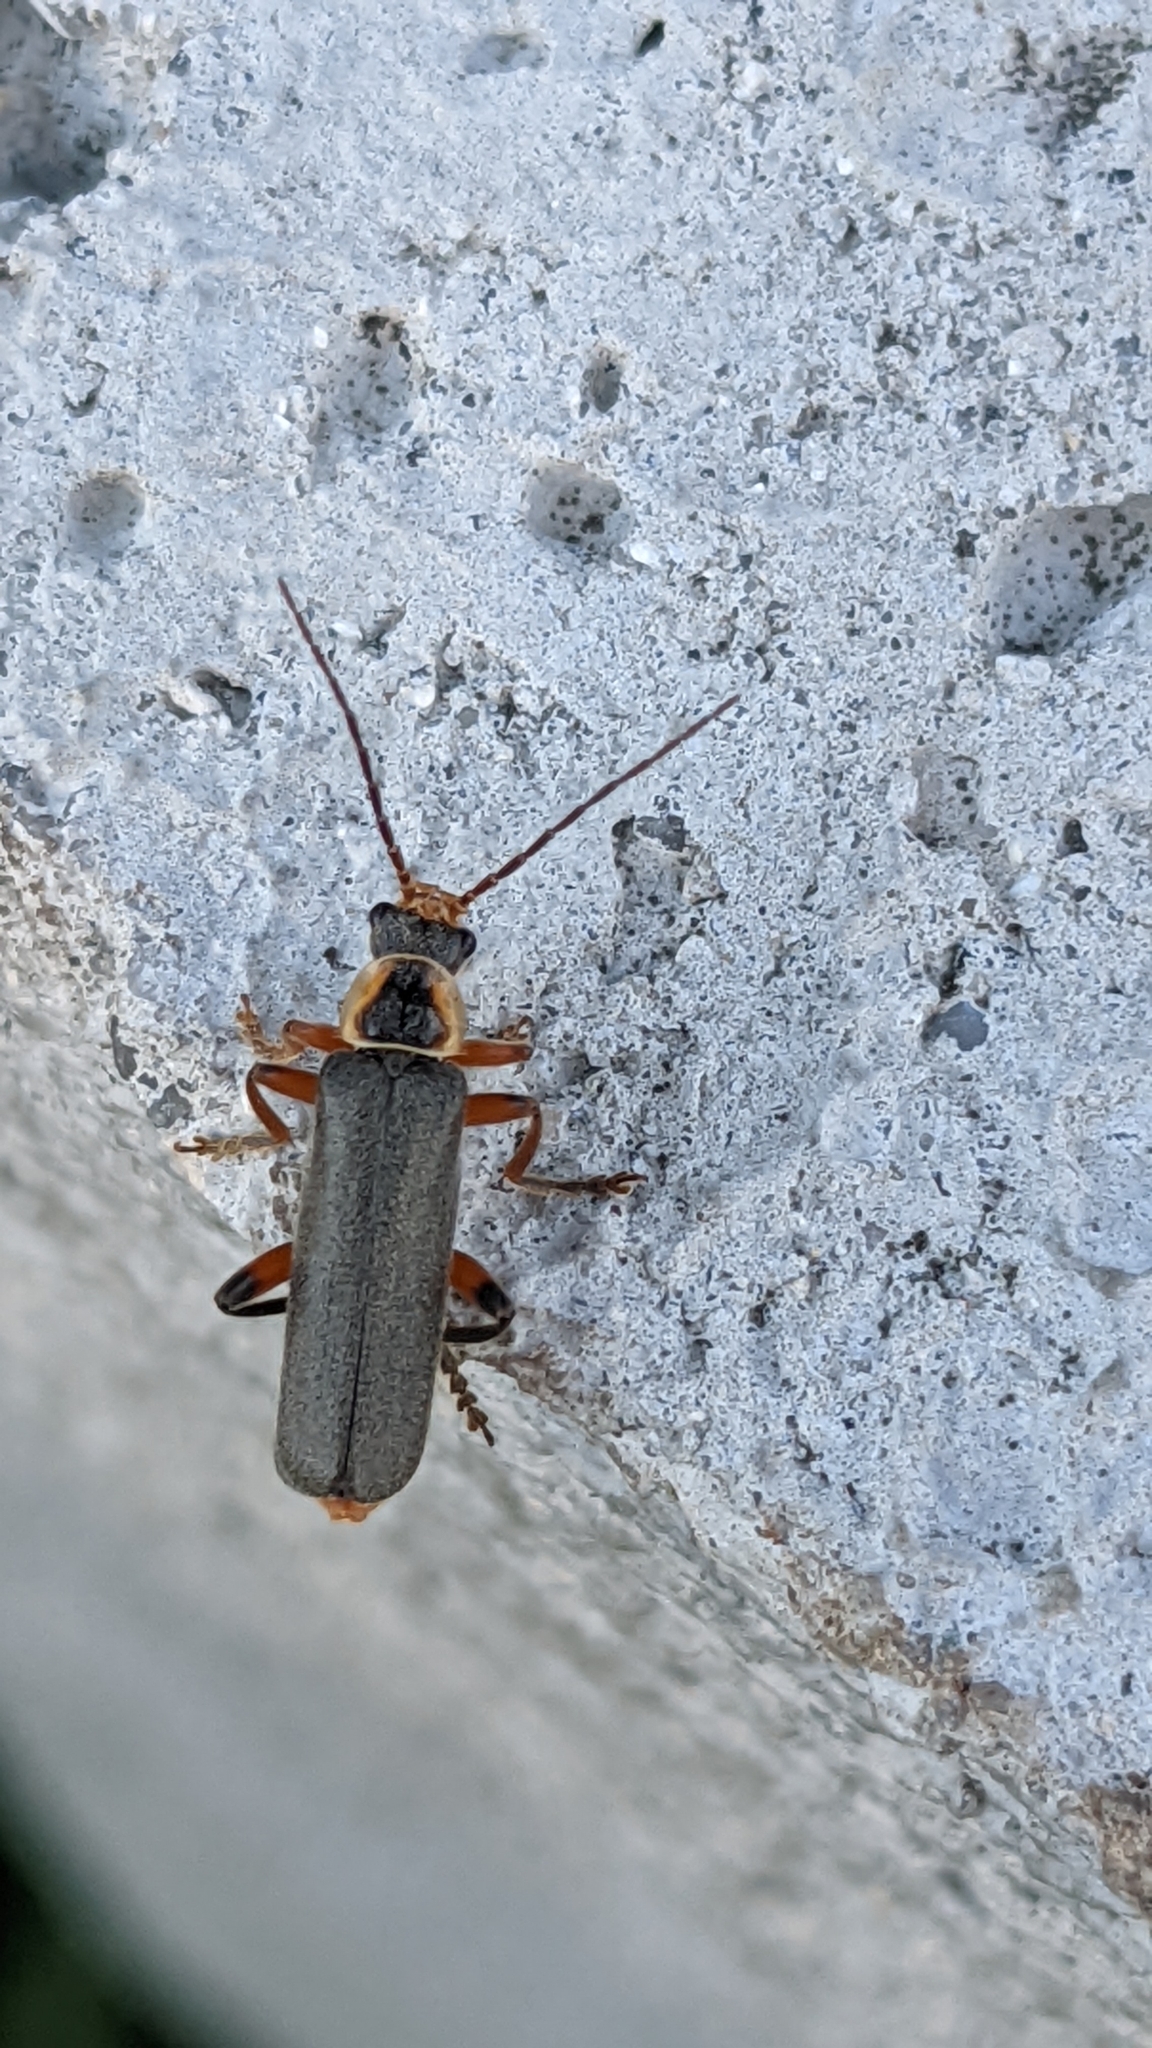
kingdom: Animalia
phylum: Arthropoda
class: Insecta
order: Coleoptera
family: Cantharidae
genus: Cantharis
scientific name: Cantharis nigricans
